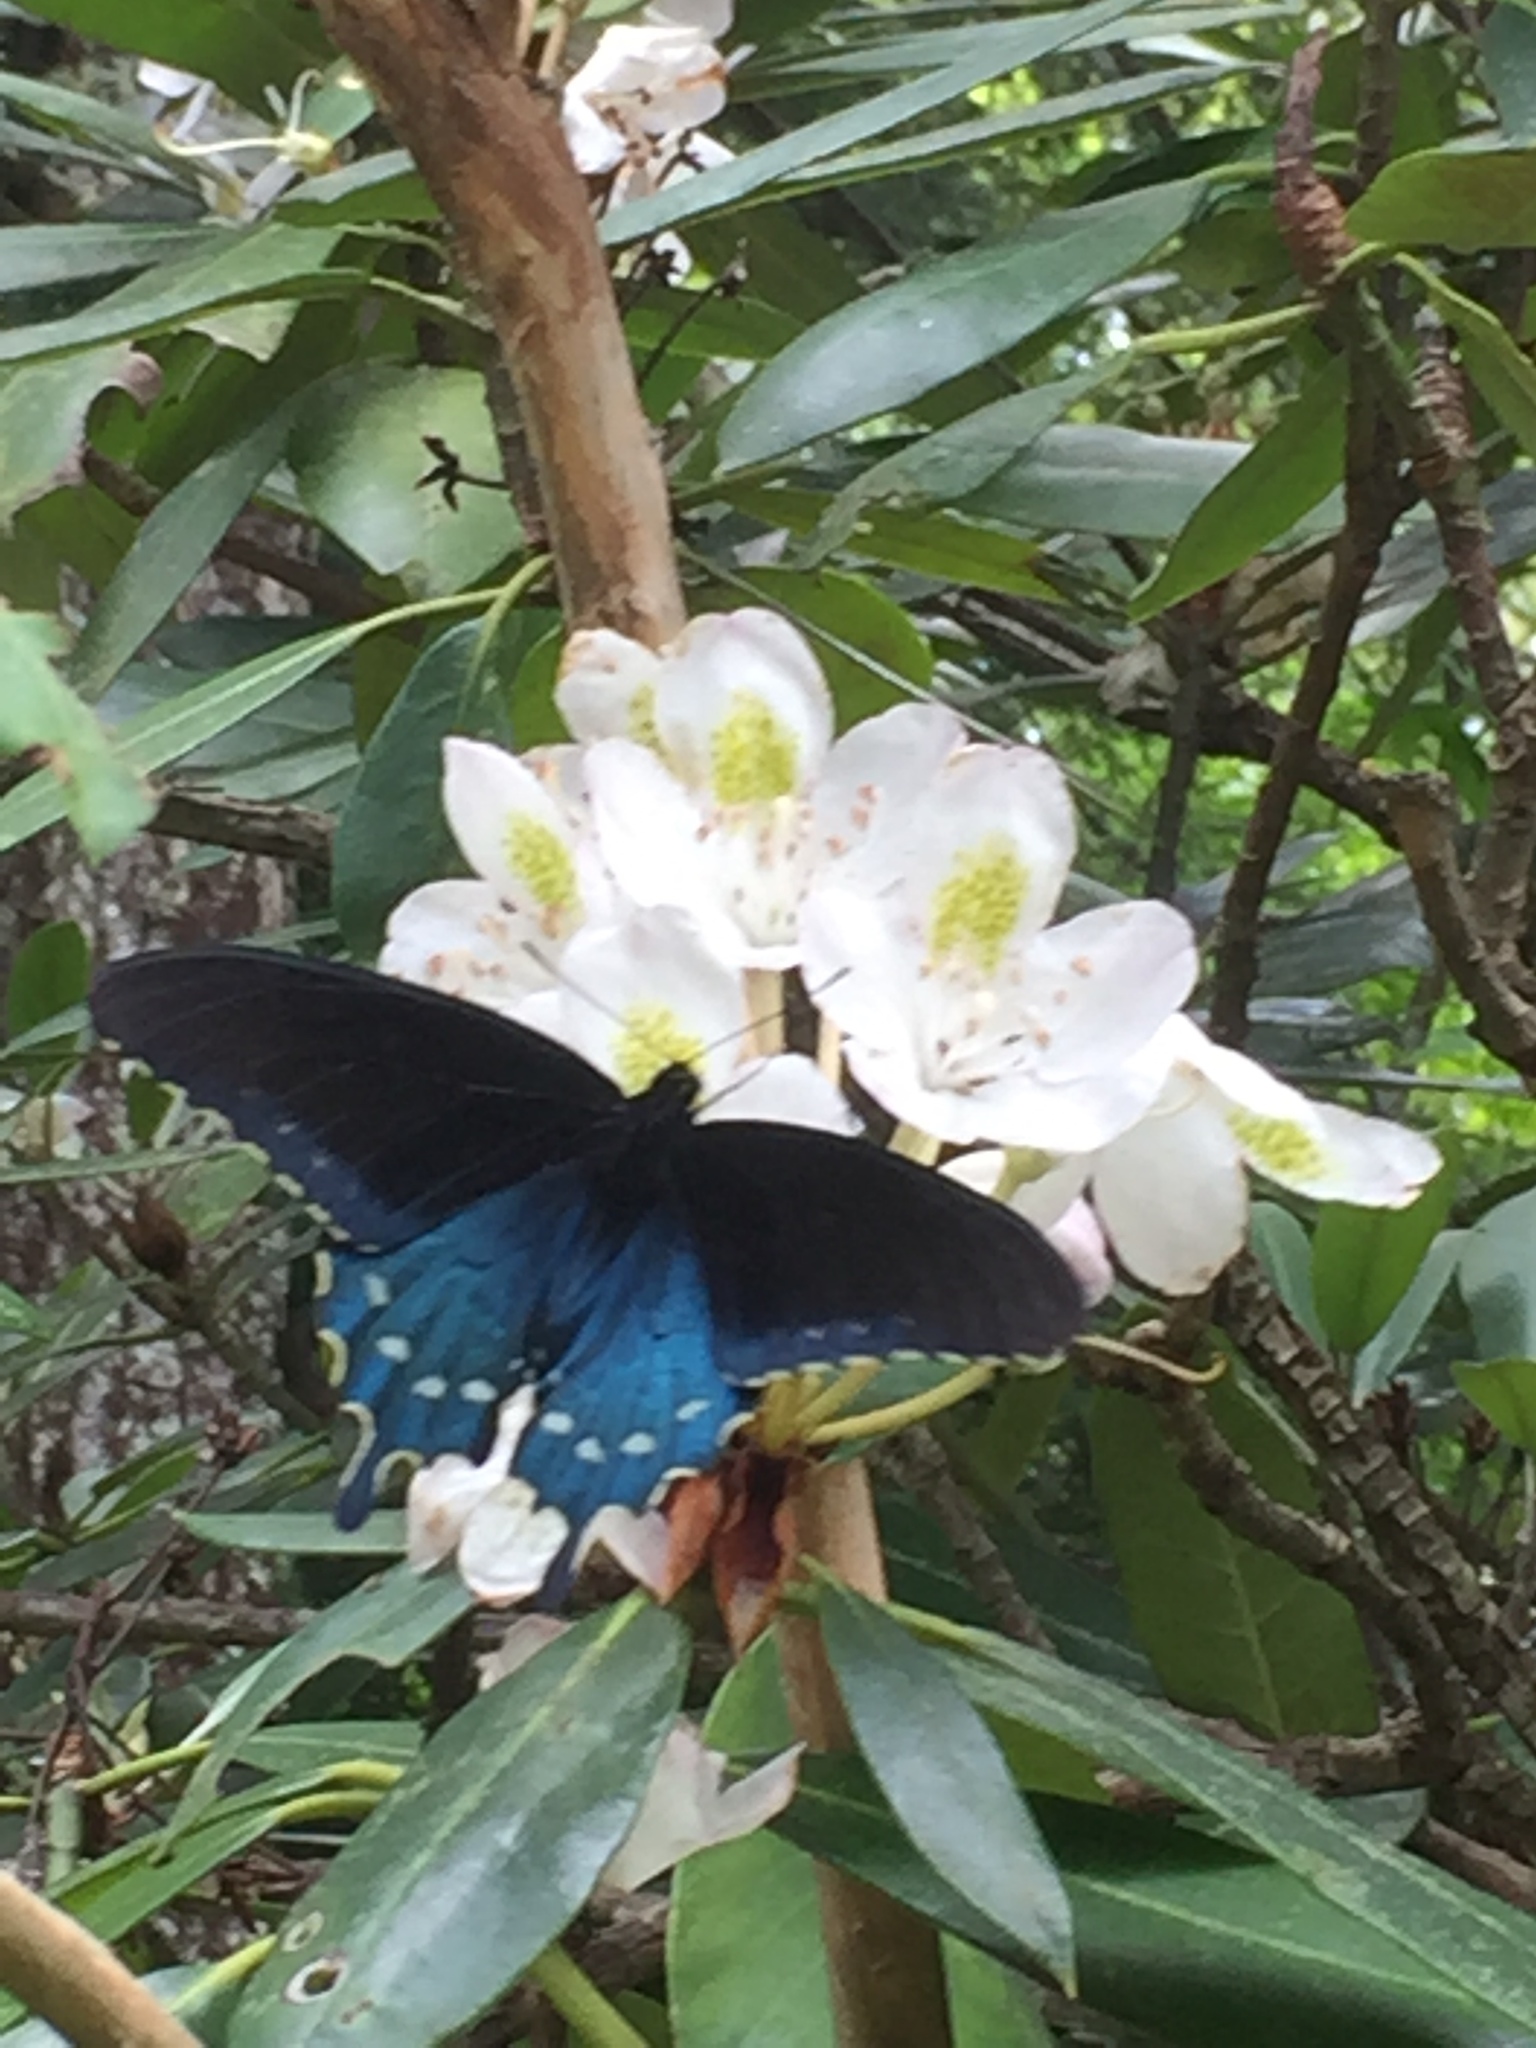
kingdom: Animalia
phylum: Arthropoda
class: Insecta
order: Lepidoptera
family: Papilionidae
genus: Battus
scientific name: Battus philenor
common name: Pipevine swallowtail
